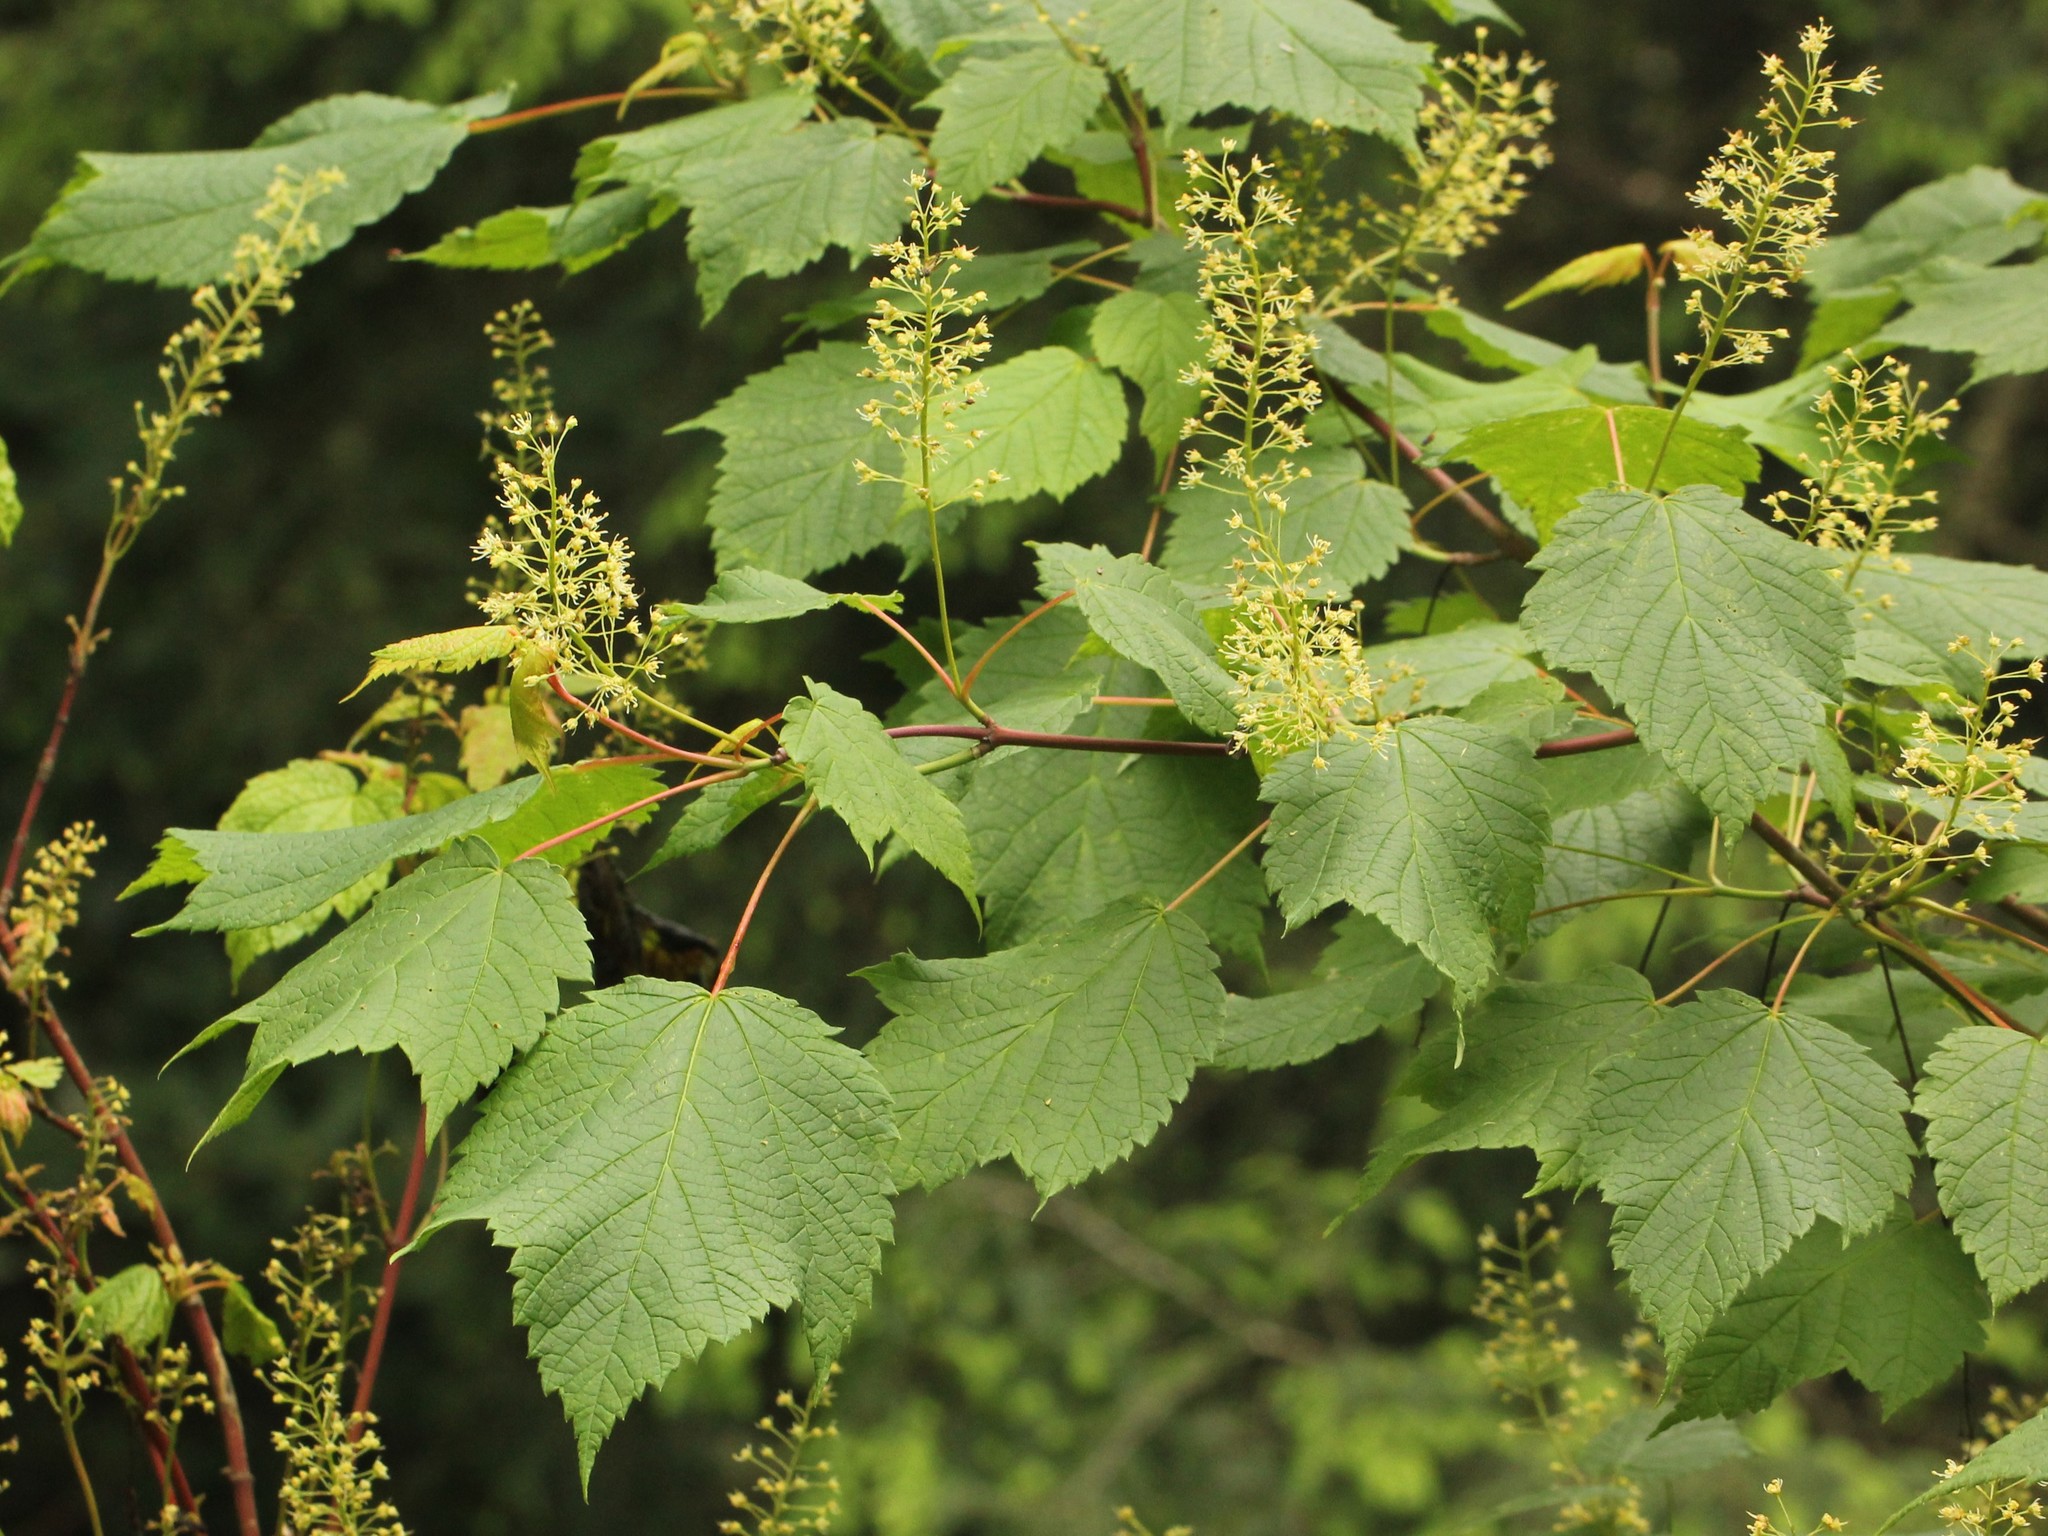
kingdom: Plantae
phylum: Tracheophyta
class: Magnoliopsida
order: Sapindales
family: Sapindaceae
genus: Acer
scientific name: Acer spicatum
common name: Mountain maple
